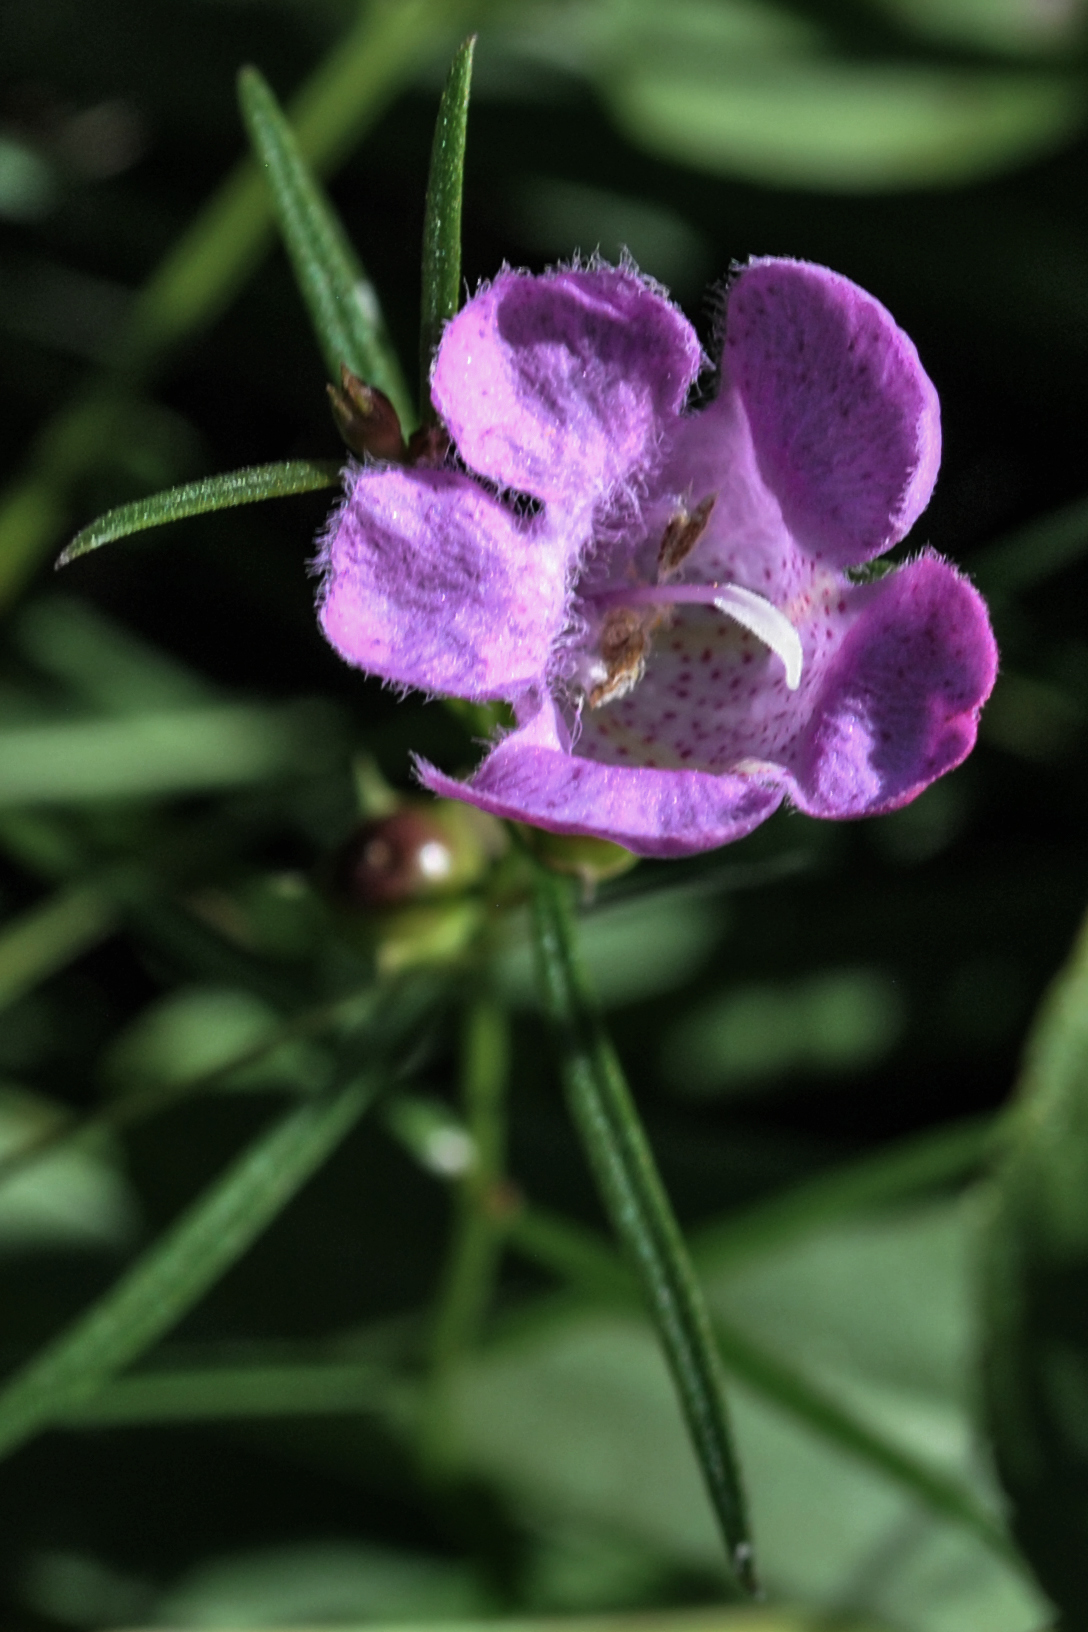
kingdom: Plantae
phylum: Tracheophyta
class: Magnoliopsida
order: Lamiales
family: Orobanchaceae
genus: Agalinis
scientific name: Agalinis purpurea
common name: Purple false foxglove
